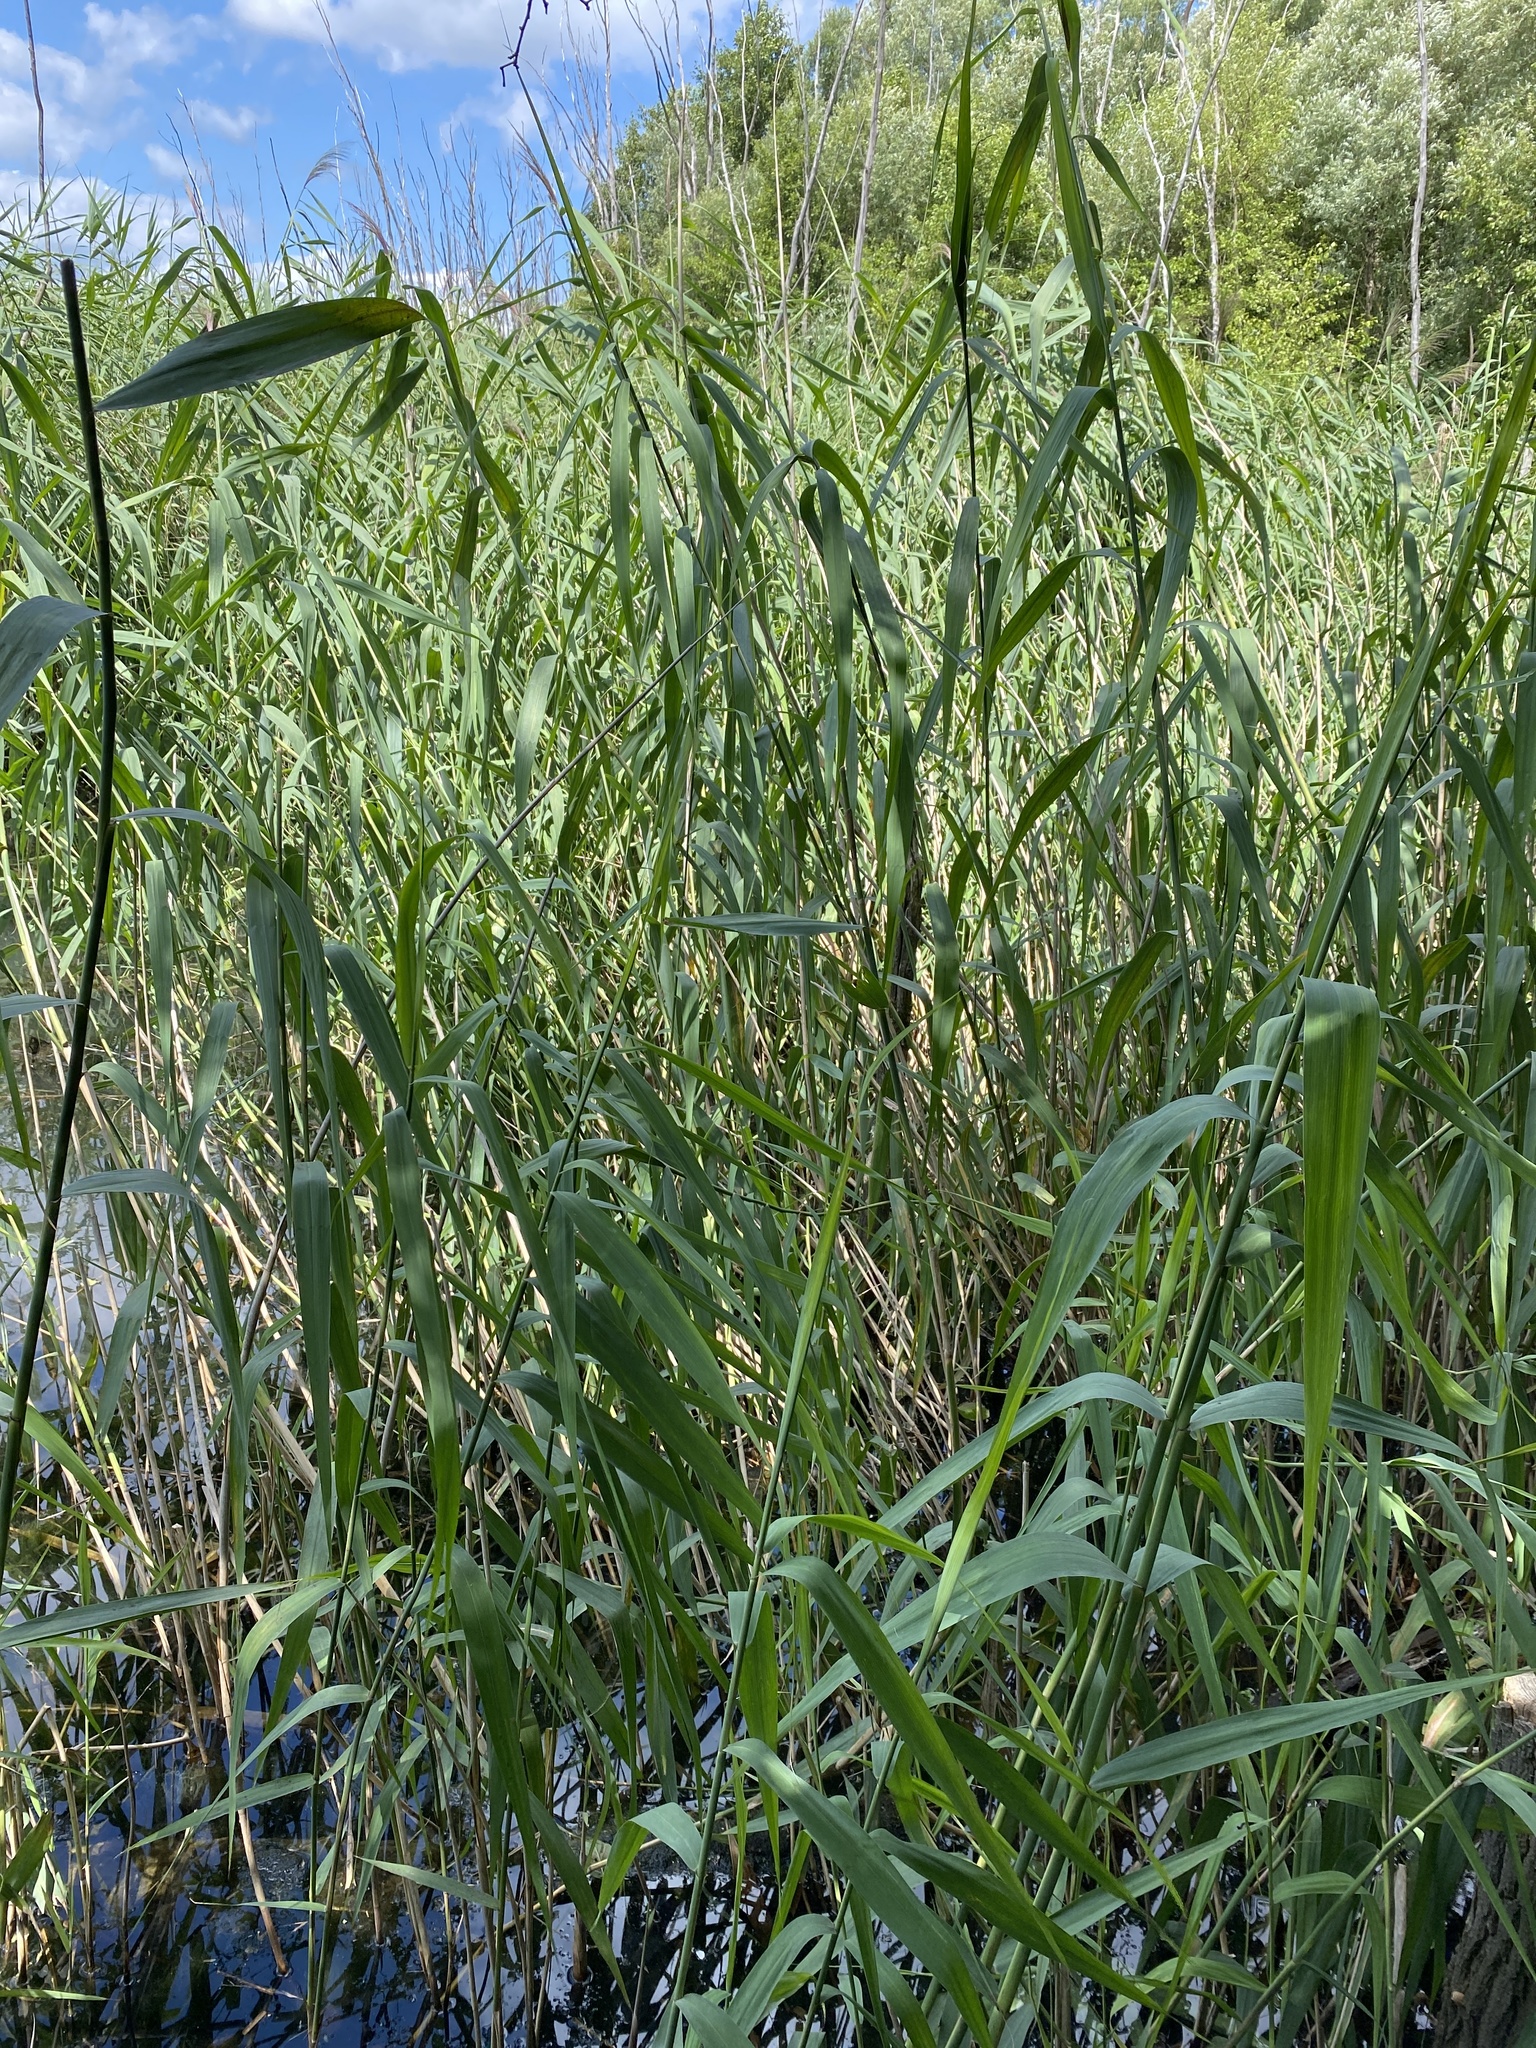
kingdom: Plantae
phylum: Tracheophyta
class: Liliopsida
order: Poales
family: Poaceae
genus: Phragmites
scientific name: Phragmites australis
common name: Common reed
